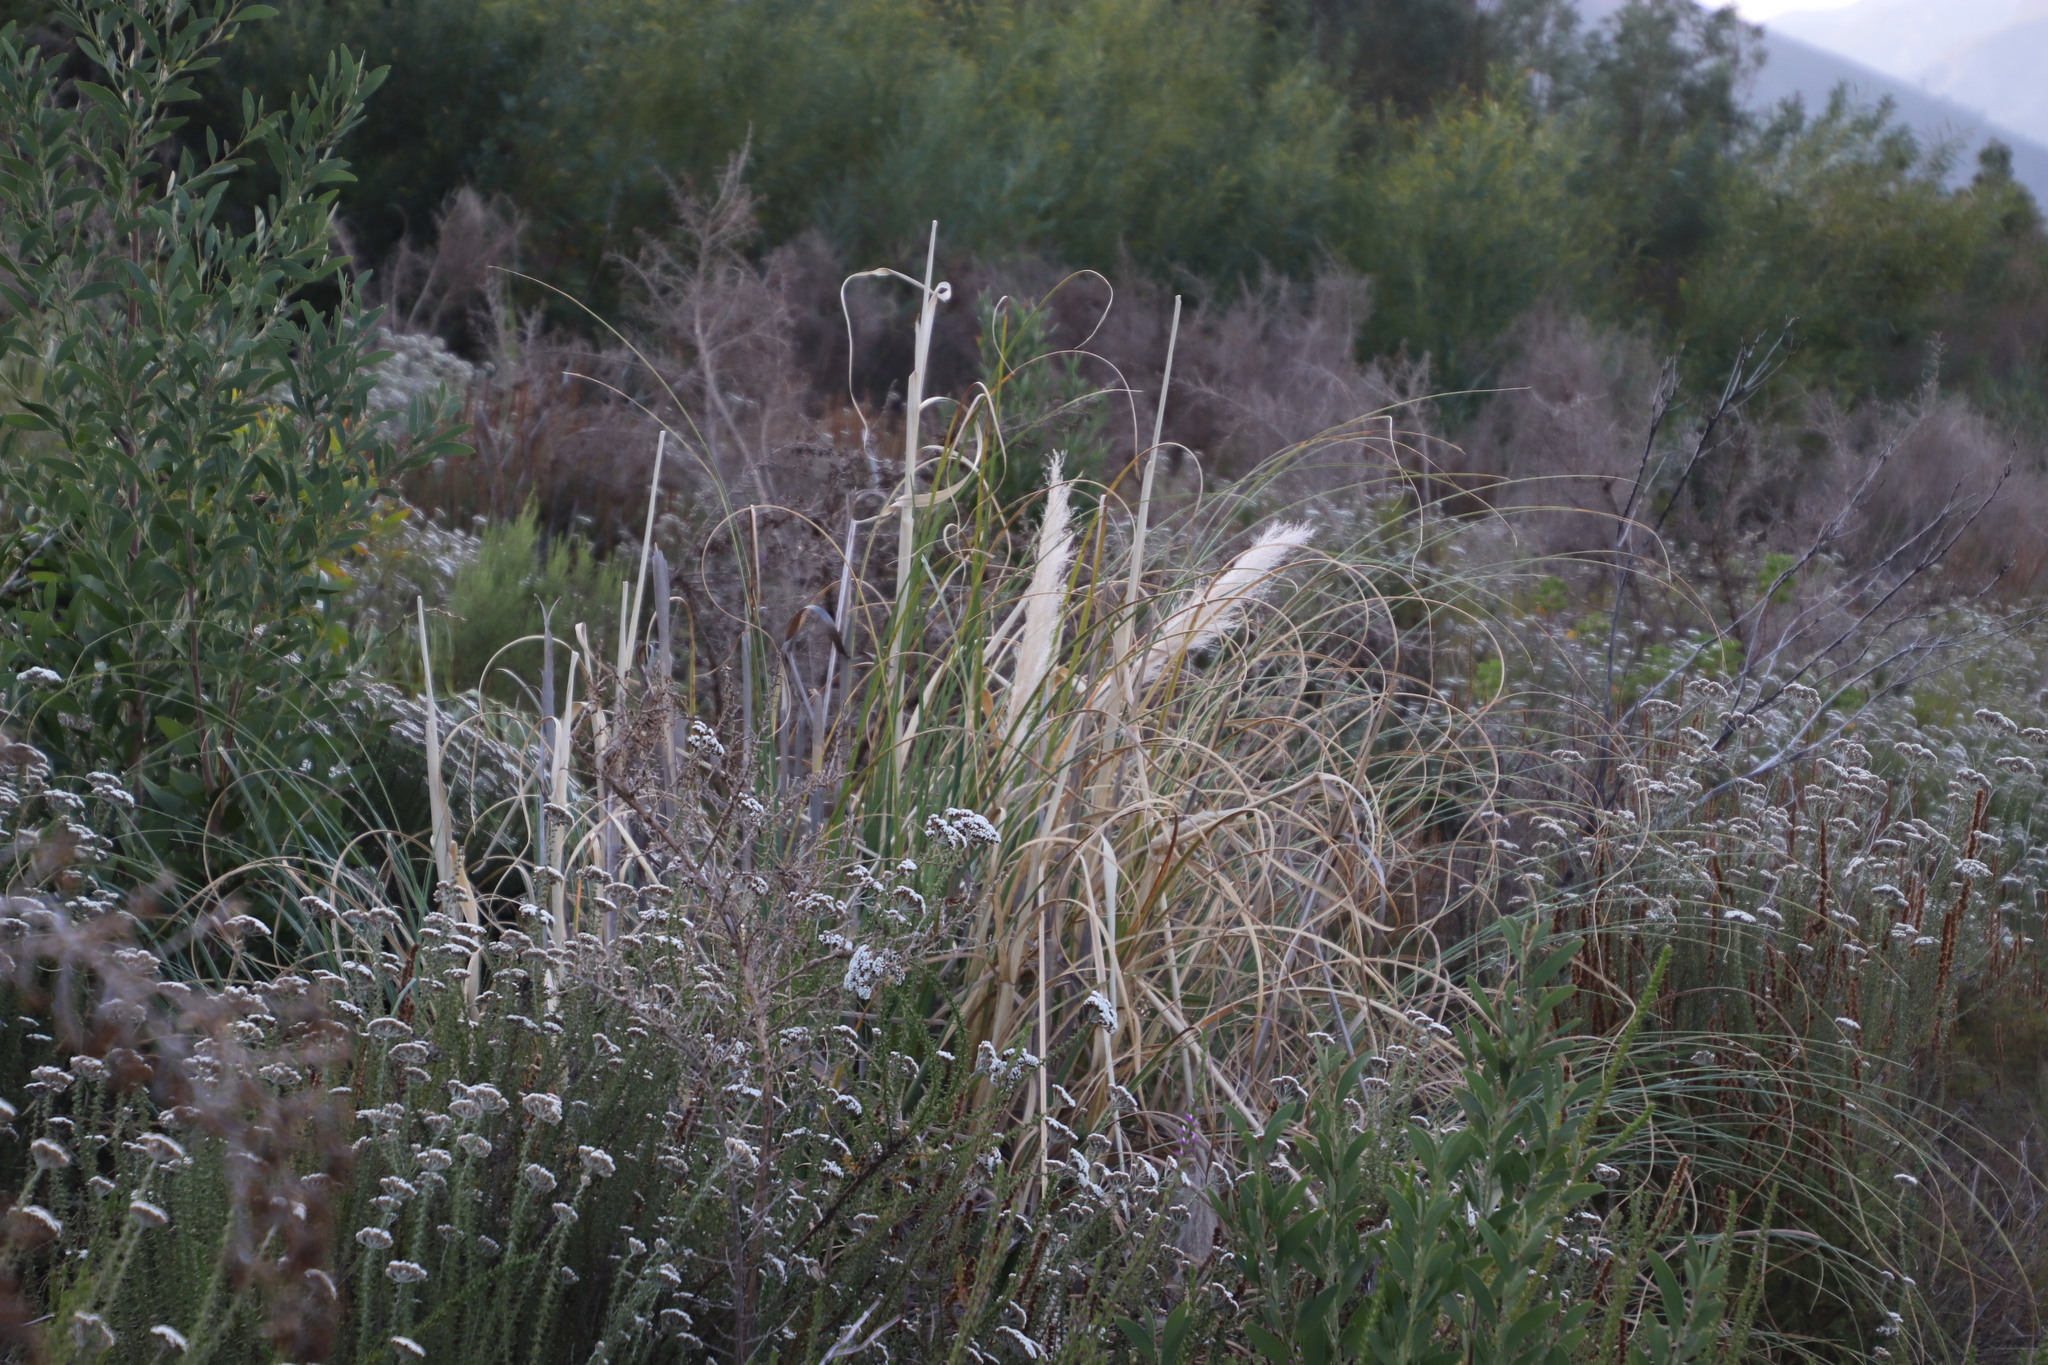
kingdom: Plantae
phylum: Tracheophyta
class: Liliopsida
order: Poales
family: Poaceae
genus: Cortaderia
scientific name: Cortaderia selloana
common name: Uruguayan pampas grass
